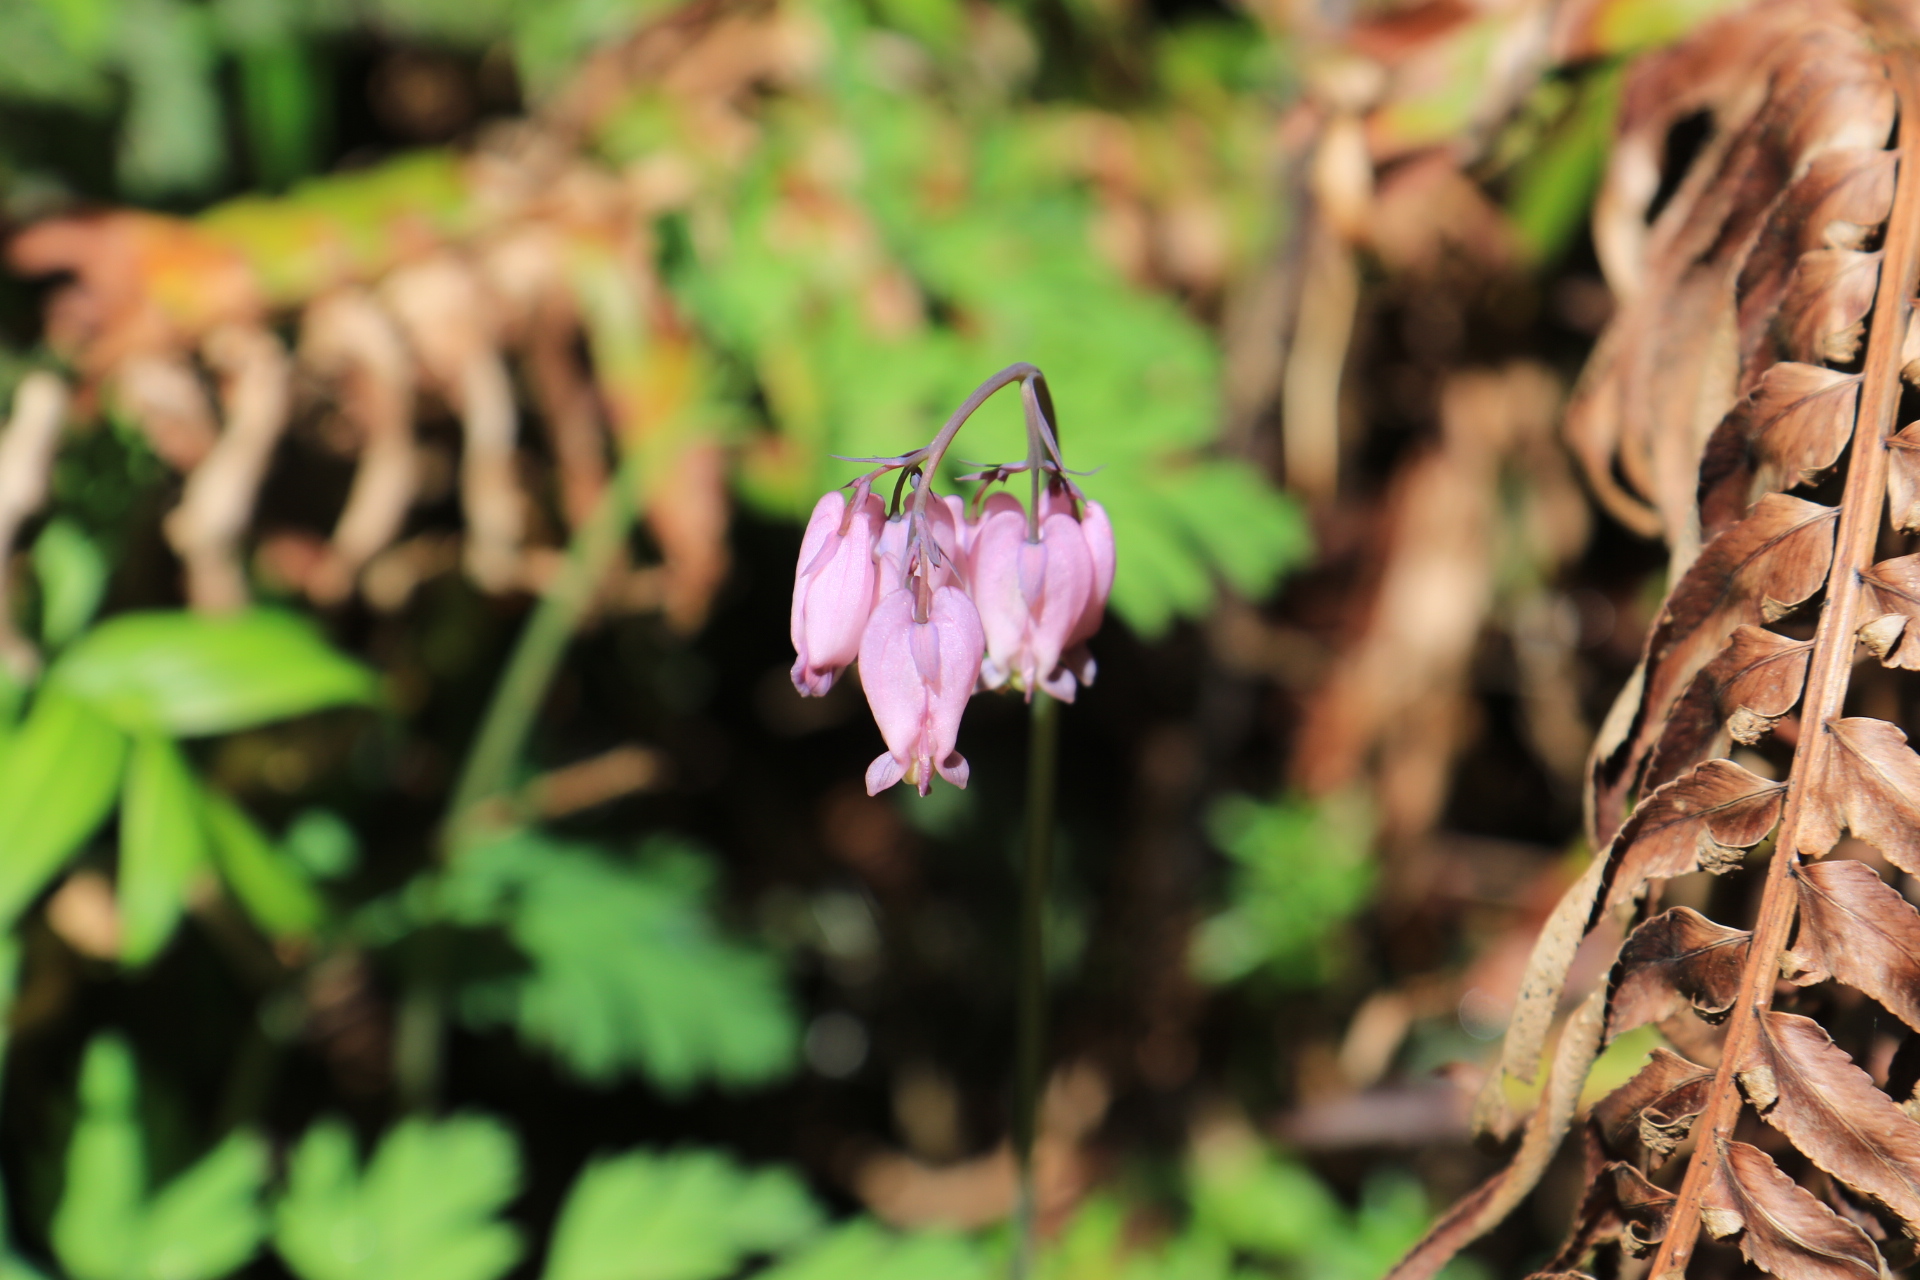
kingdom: Plantae
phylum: Tracheophyta
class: Magnoliopsida
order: Ranunculales
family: Papaveraceae
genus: Dicentra
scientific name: Dicentra formosa
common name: Bleeding-heart
